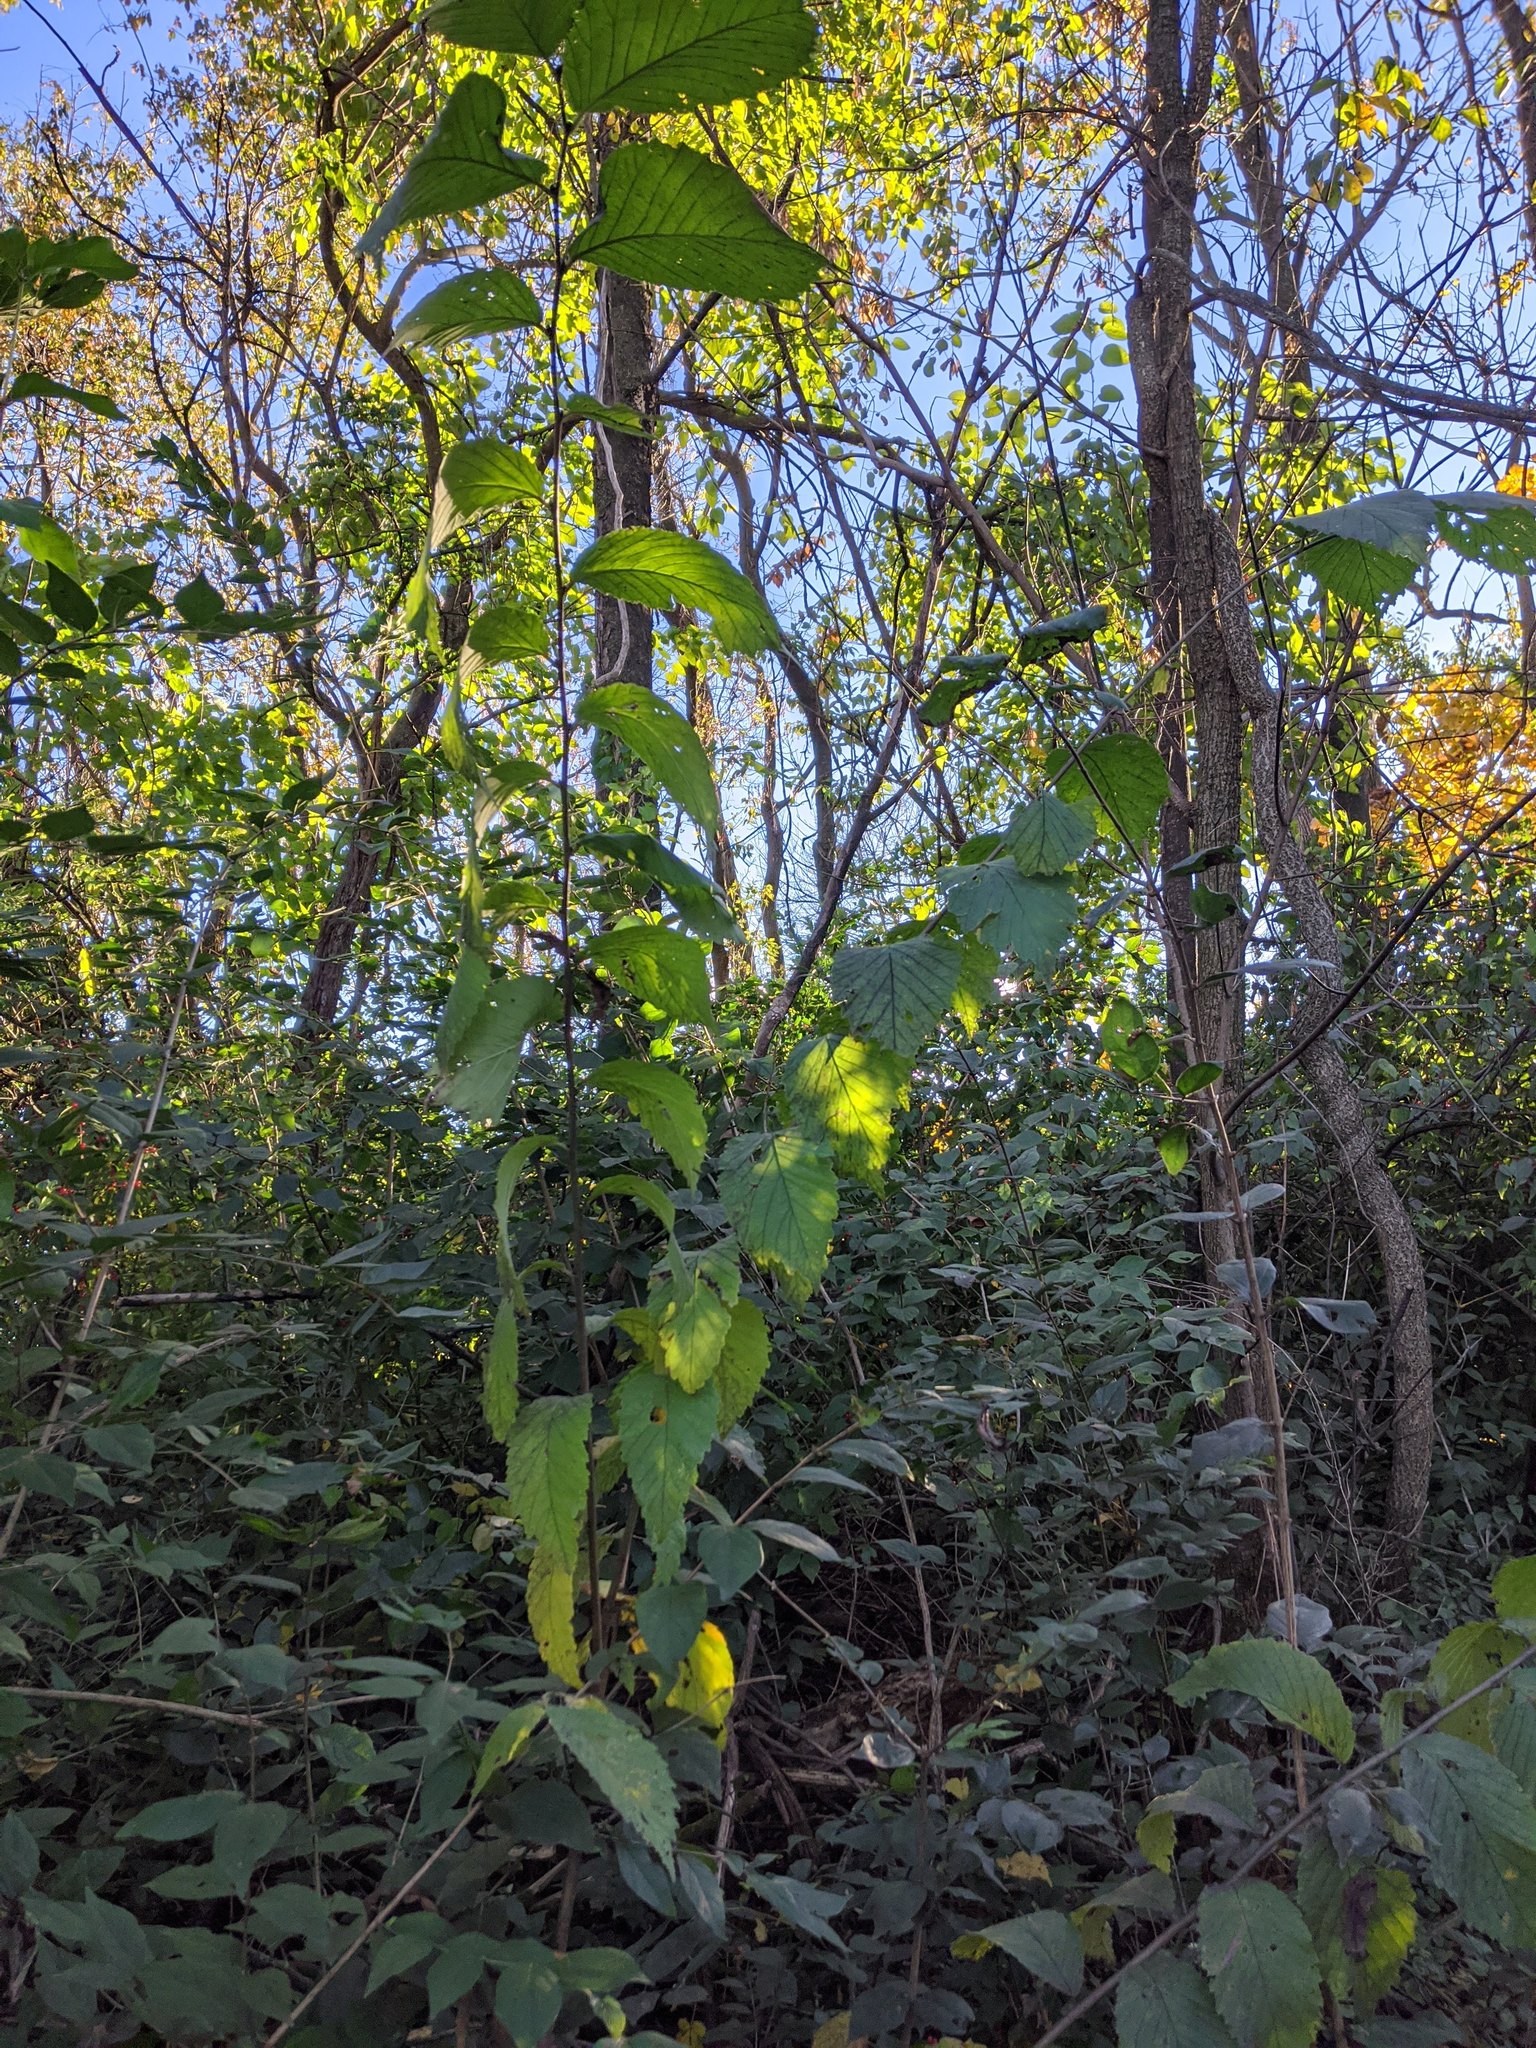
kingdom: Plantae
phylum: Tracheophyta
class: Magnoliopsida
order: Rosales
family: Ulmaceae
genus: Ulmus
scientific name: Ulmus rubra
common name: Slippery elm
